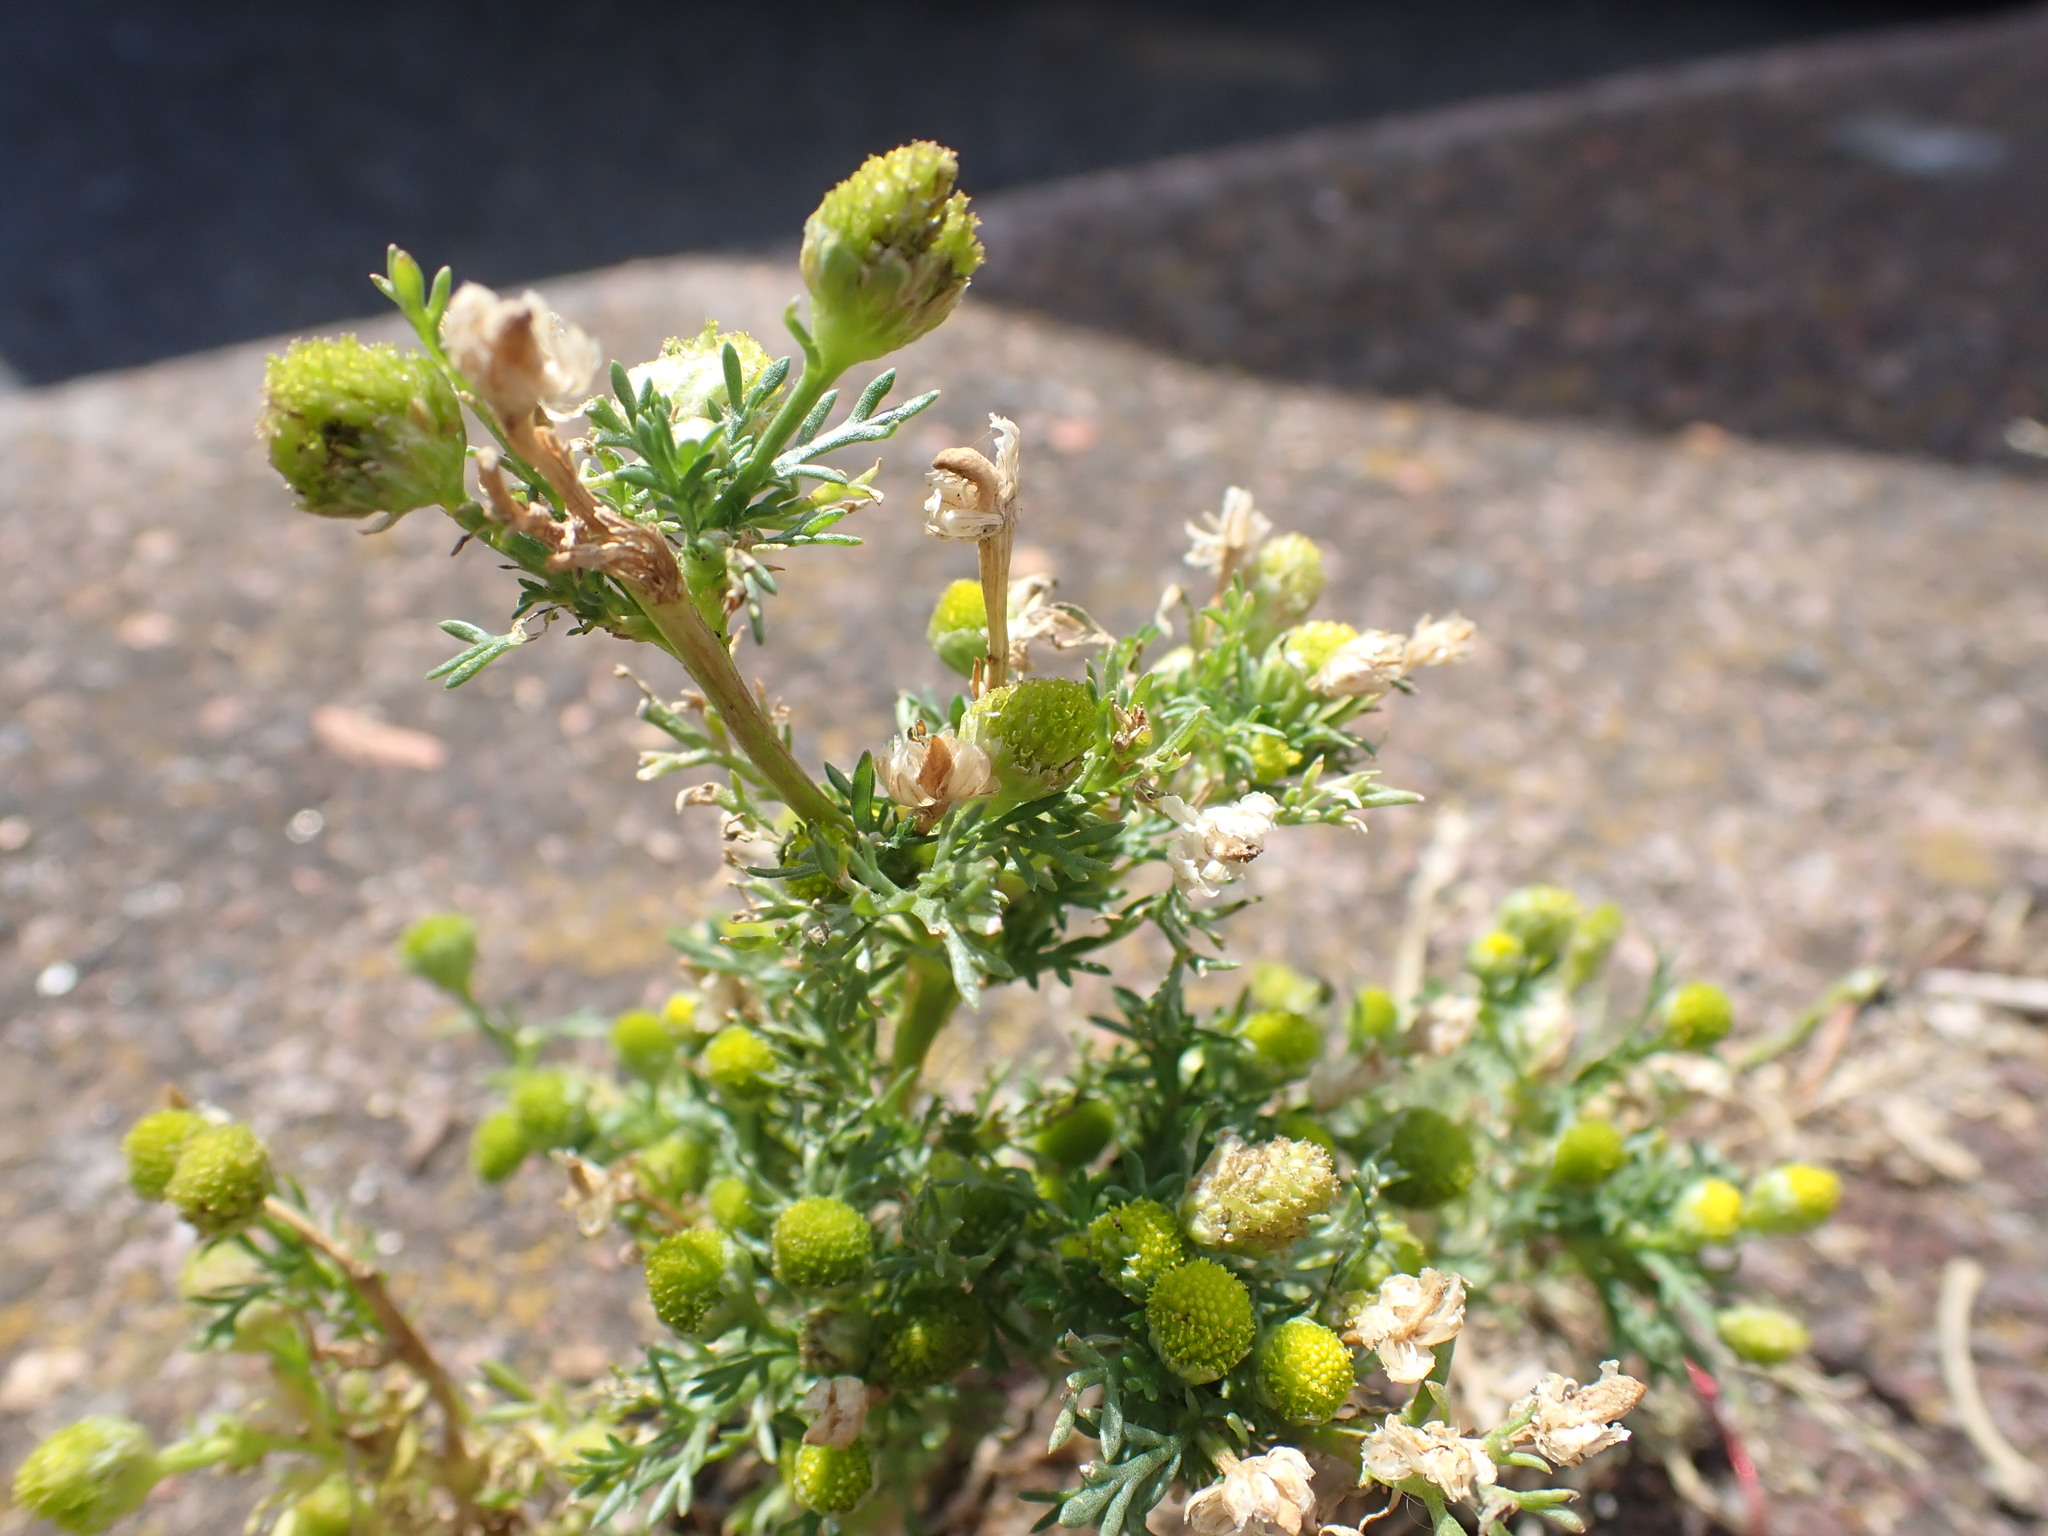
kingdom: Plantae
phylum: Tracheophyta
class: Magnoliopsida
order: Asterales
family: Asteraceae
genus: Matricaria
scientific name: Matricaria discoidea
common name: Disc mayweed
